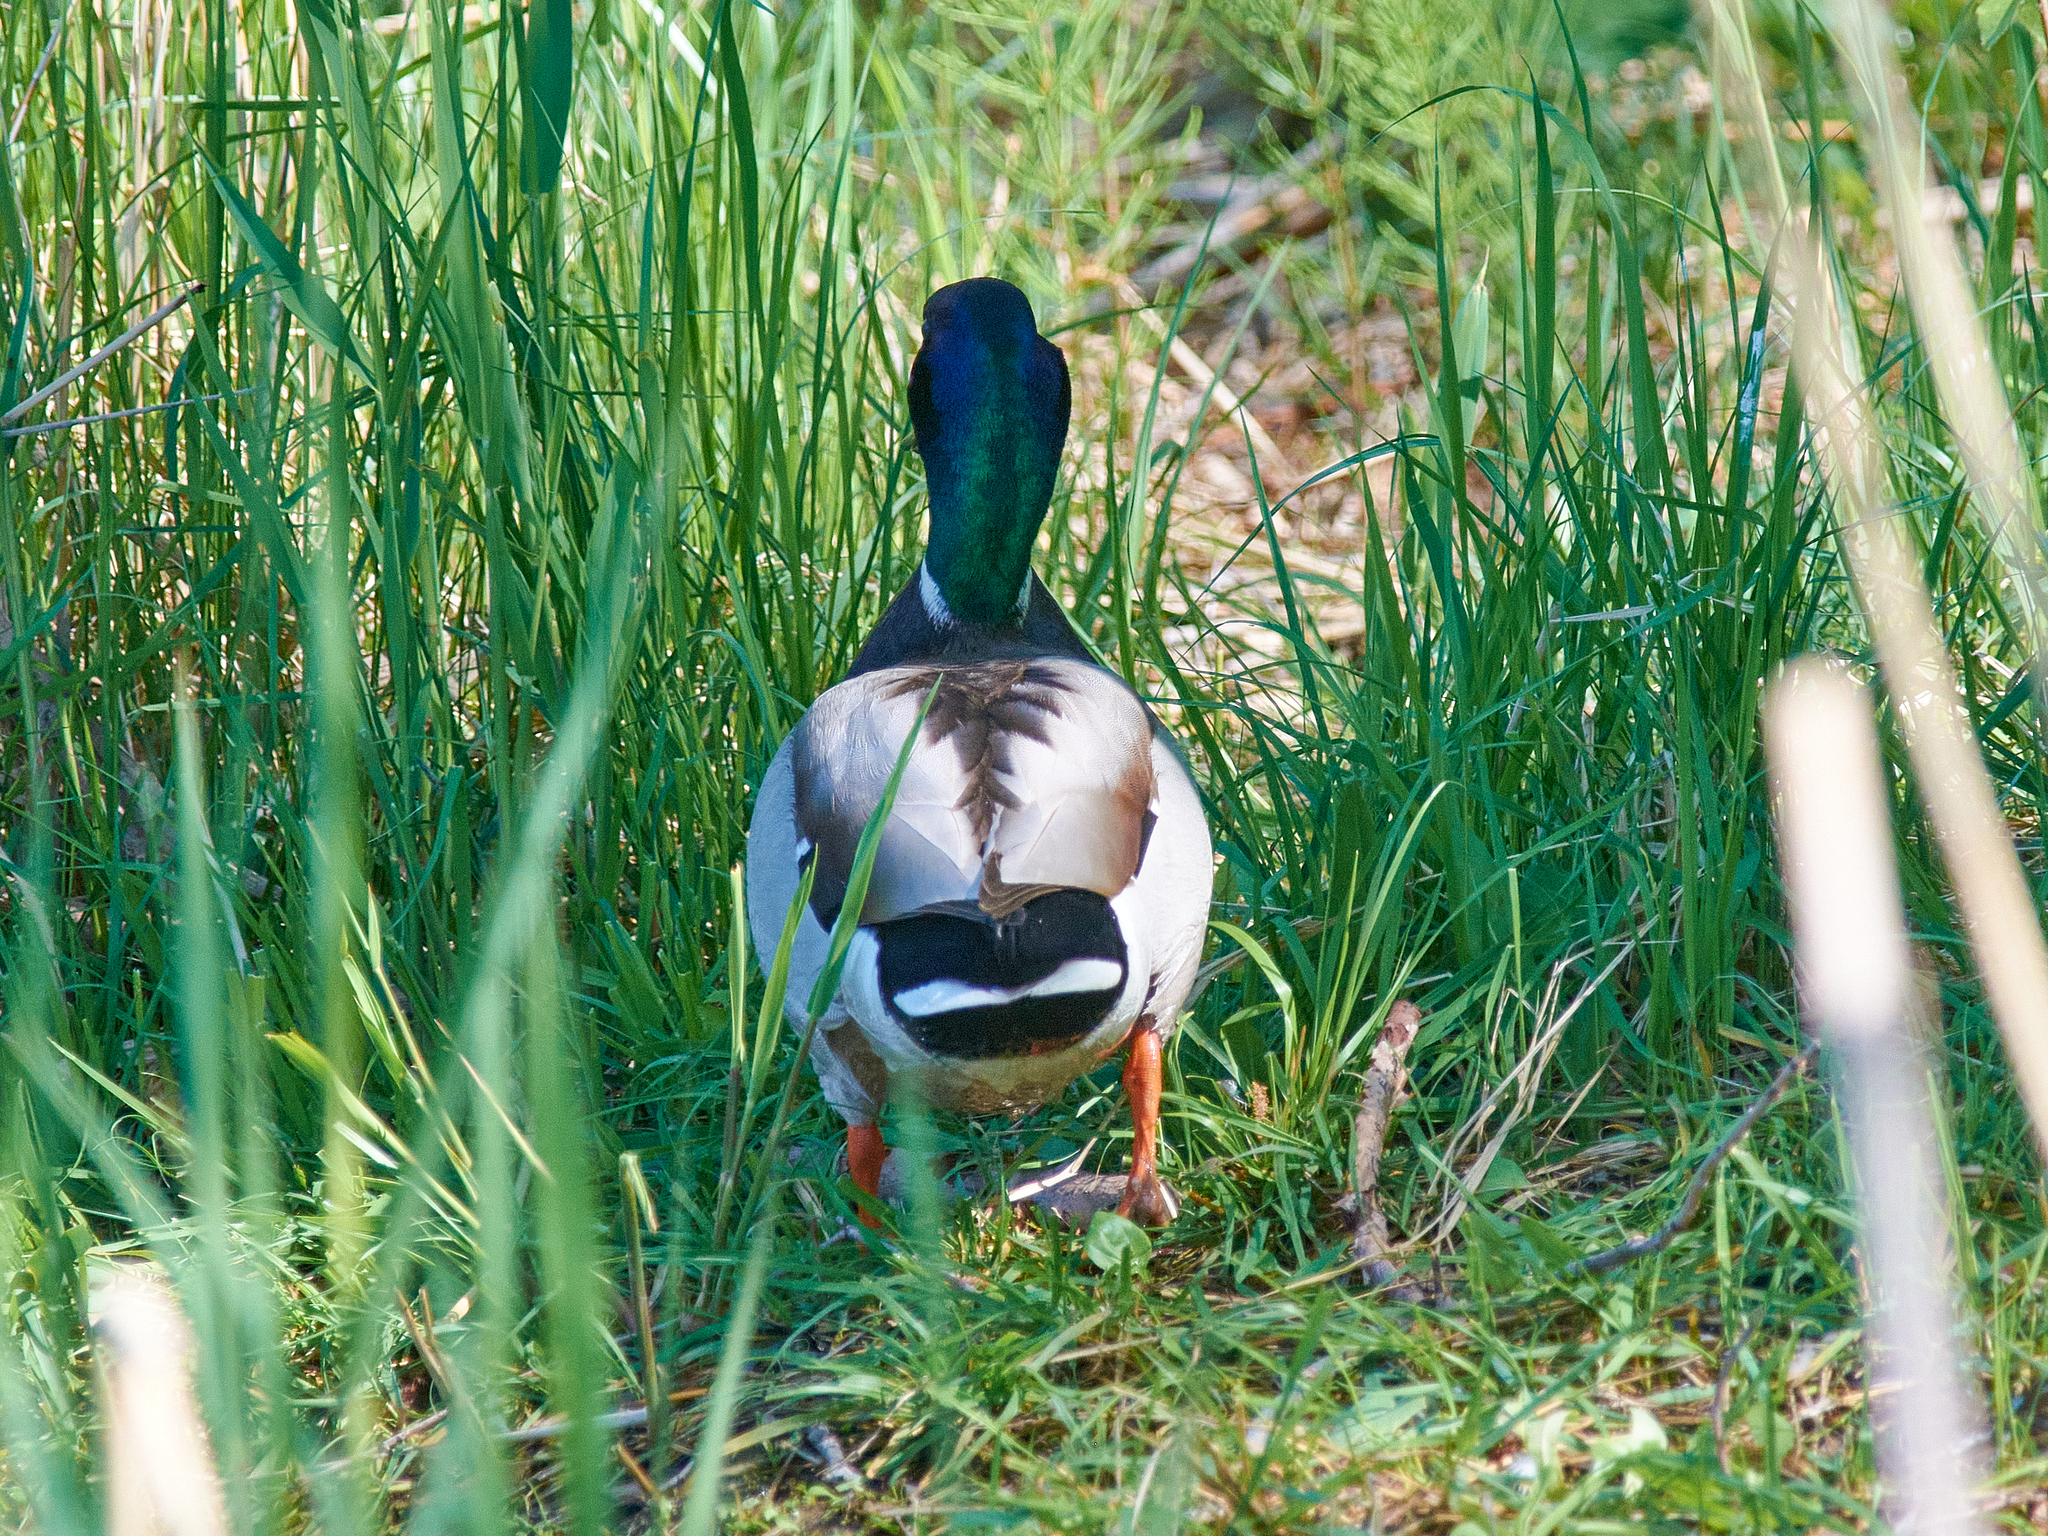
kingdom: Animalia
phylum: Chordata
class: Aves
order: Anseriformes
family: Anatidae
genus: Anas
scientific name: Anas platyrhynchos
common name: Mallard
